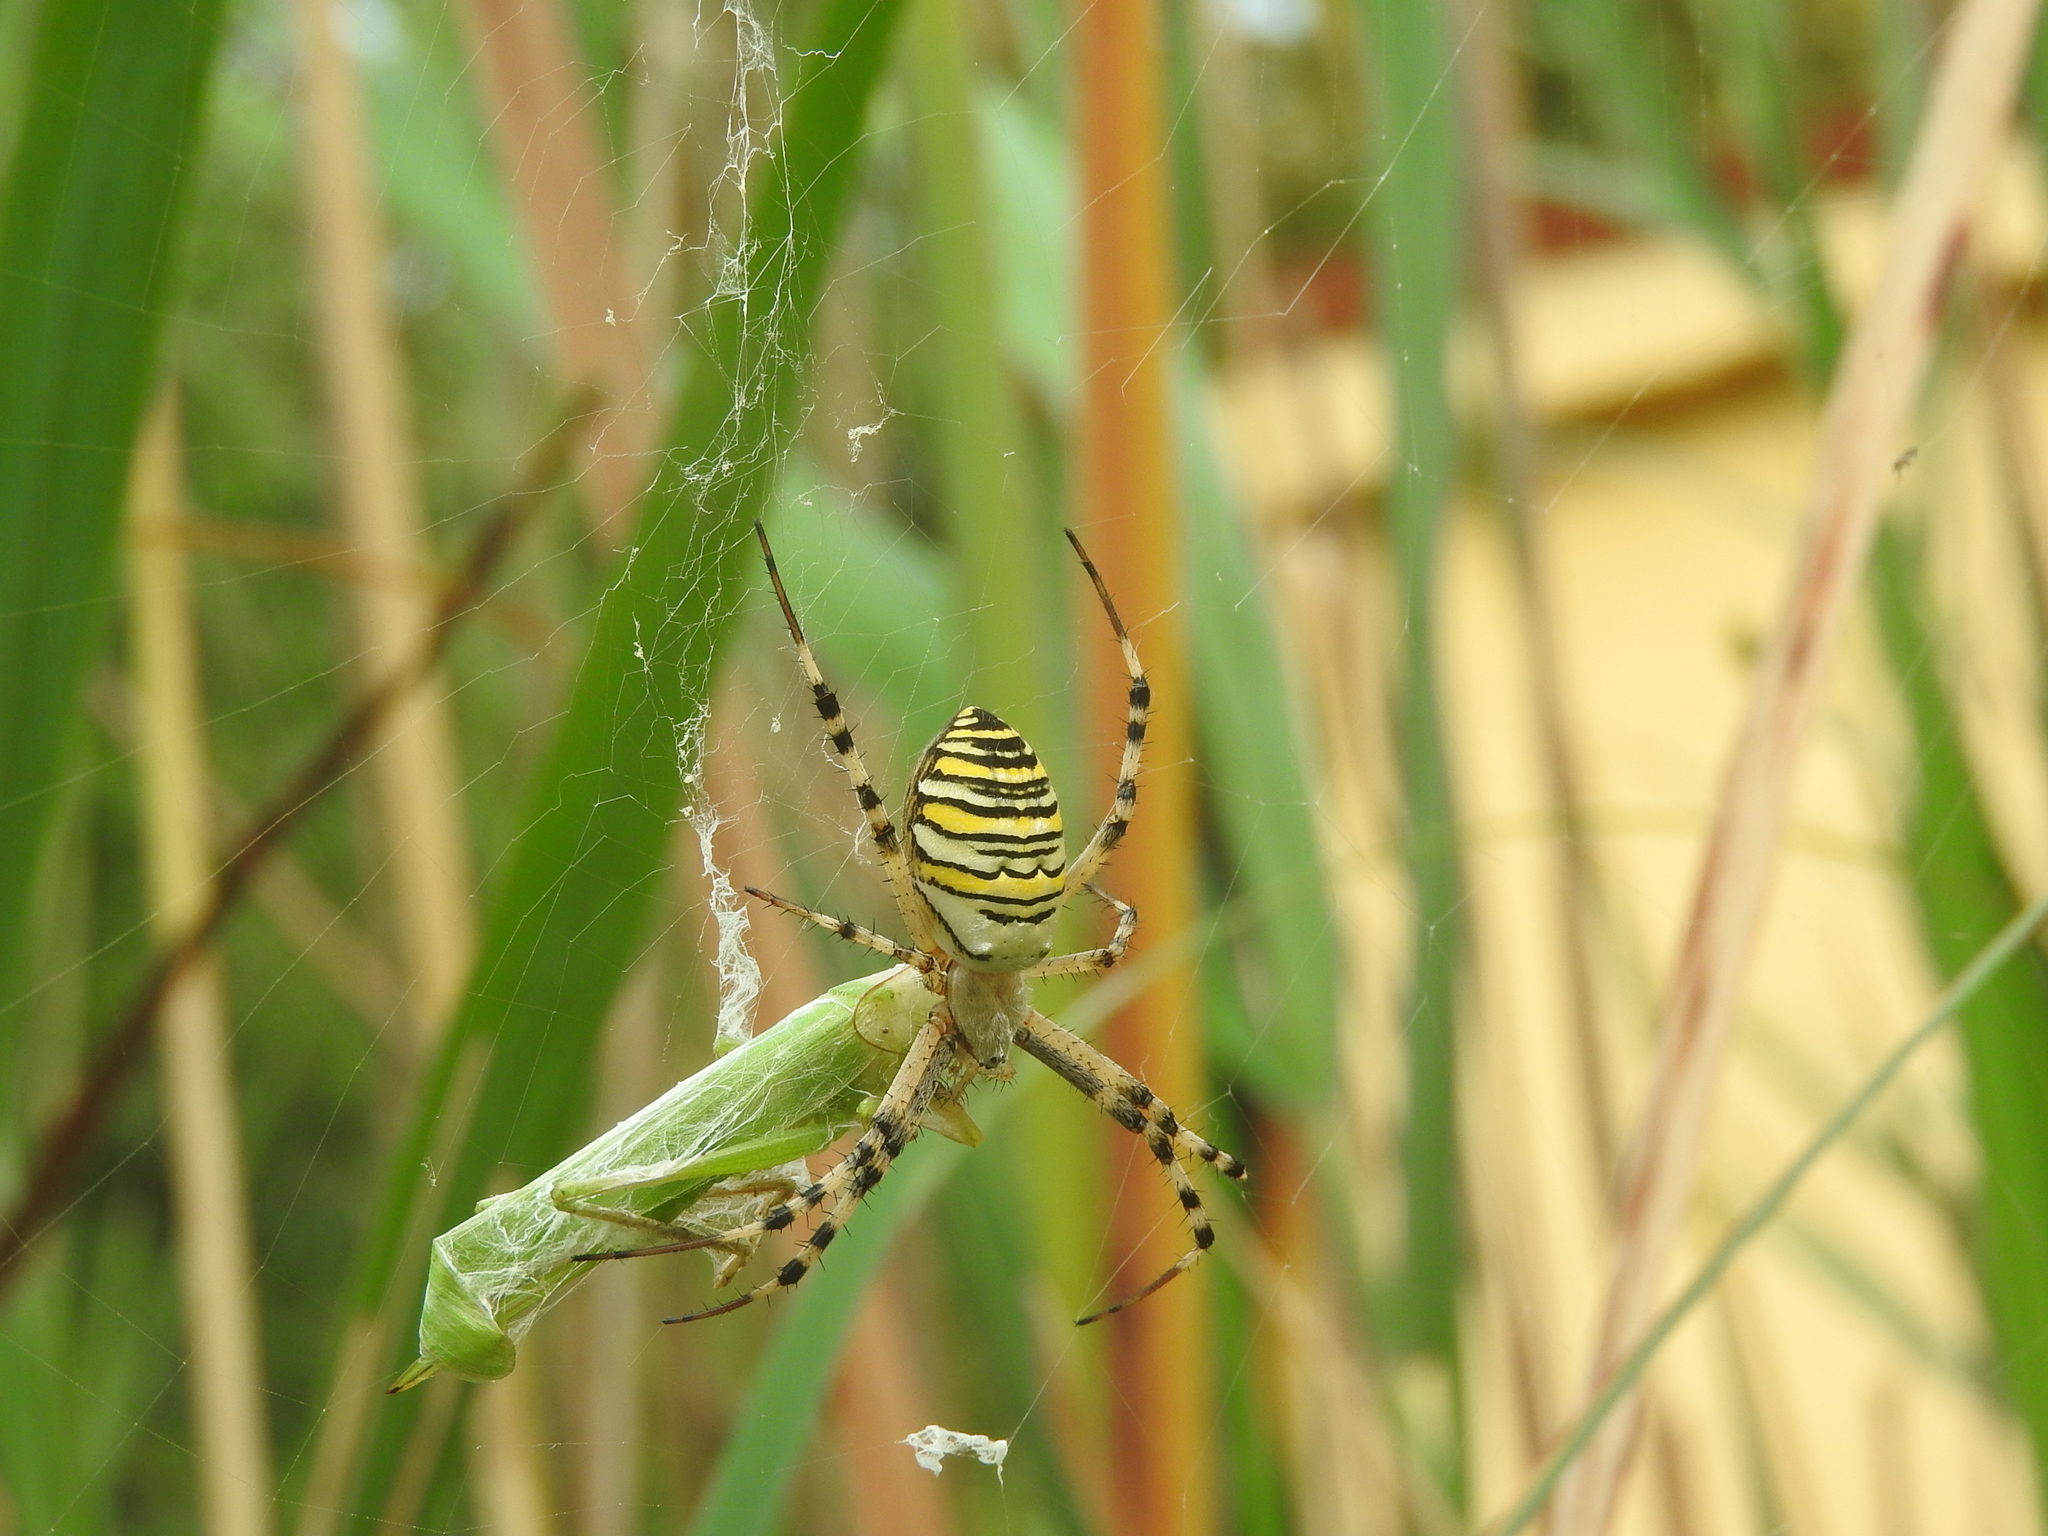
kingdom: Animalia
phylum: Arthropoda
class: Arachnida
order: Araneae
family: Araneidae
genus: Argiope
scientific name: Argiope bruennichi
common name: Wasp spider
